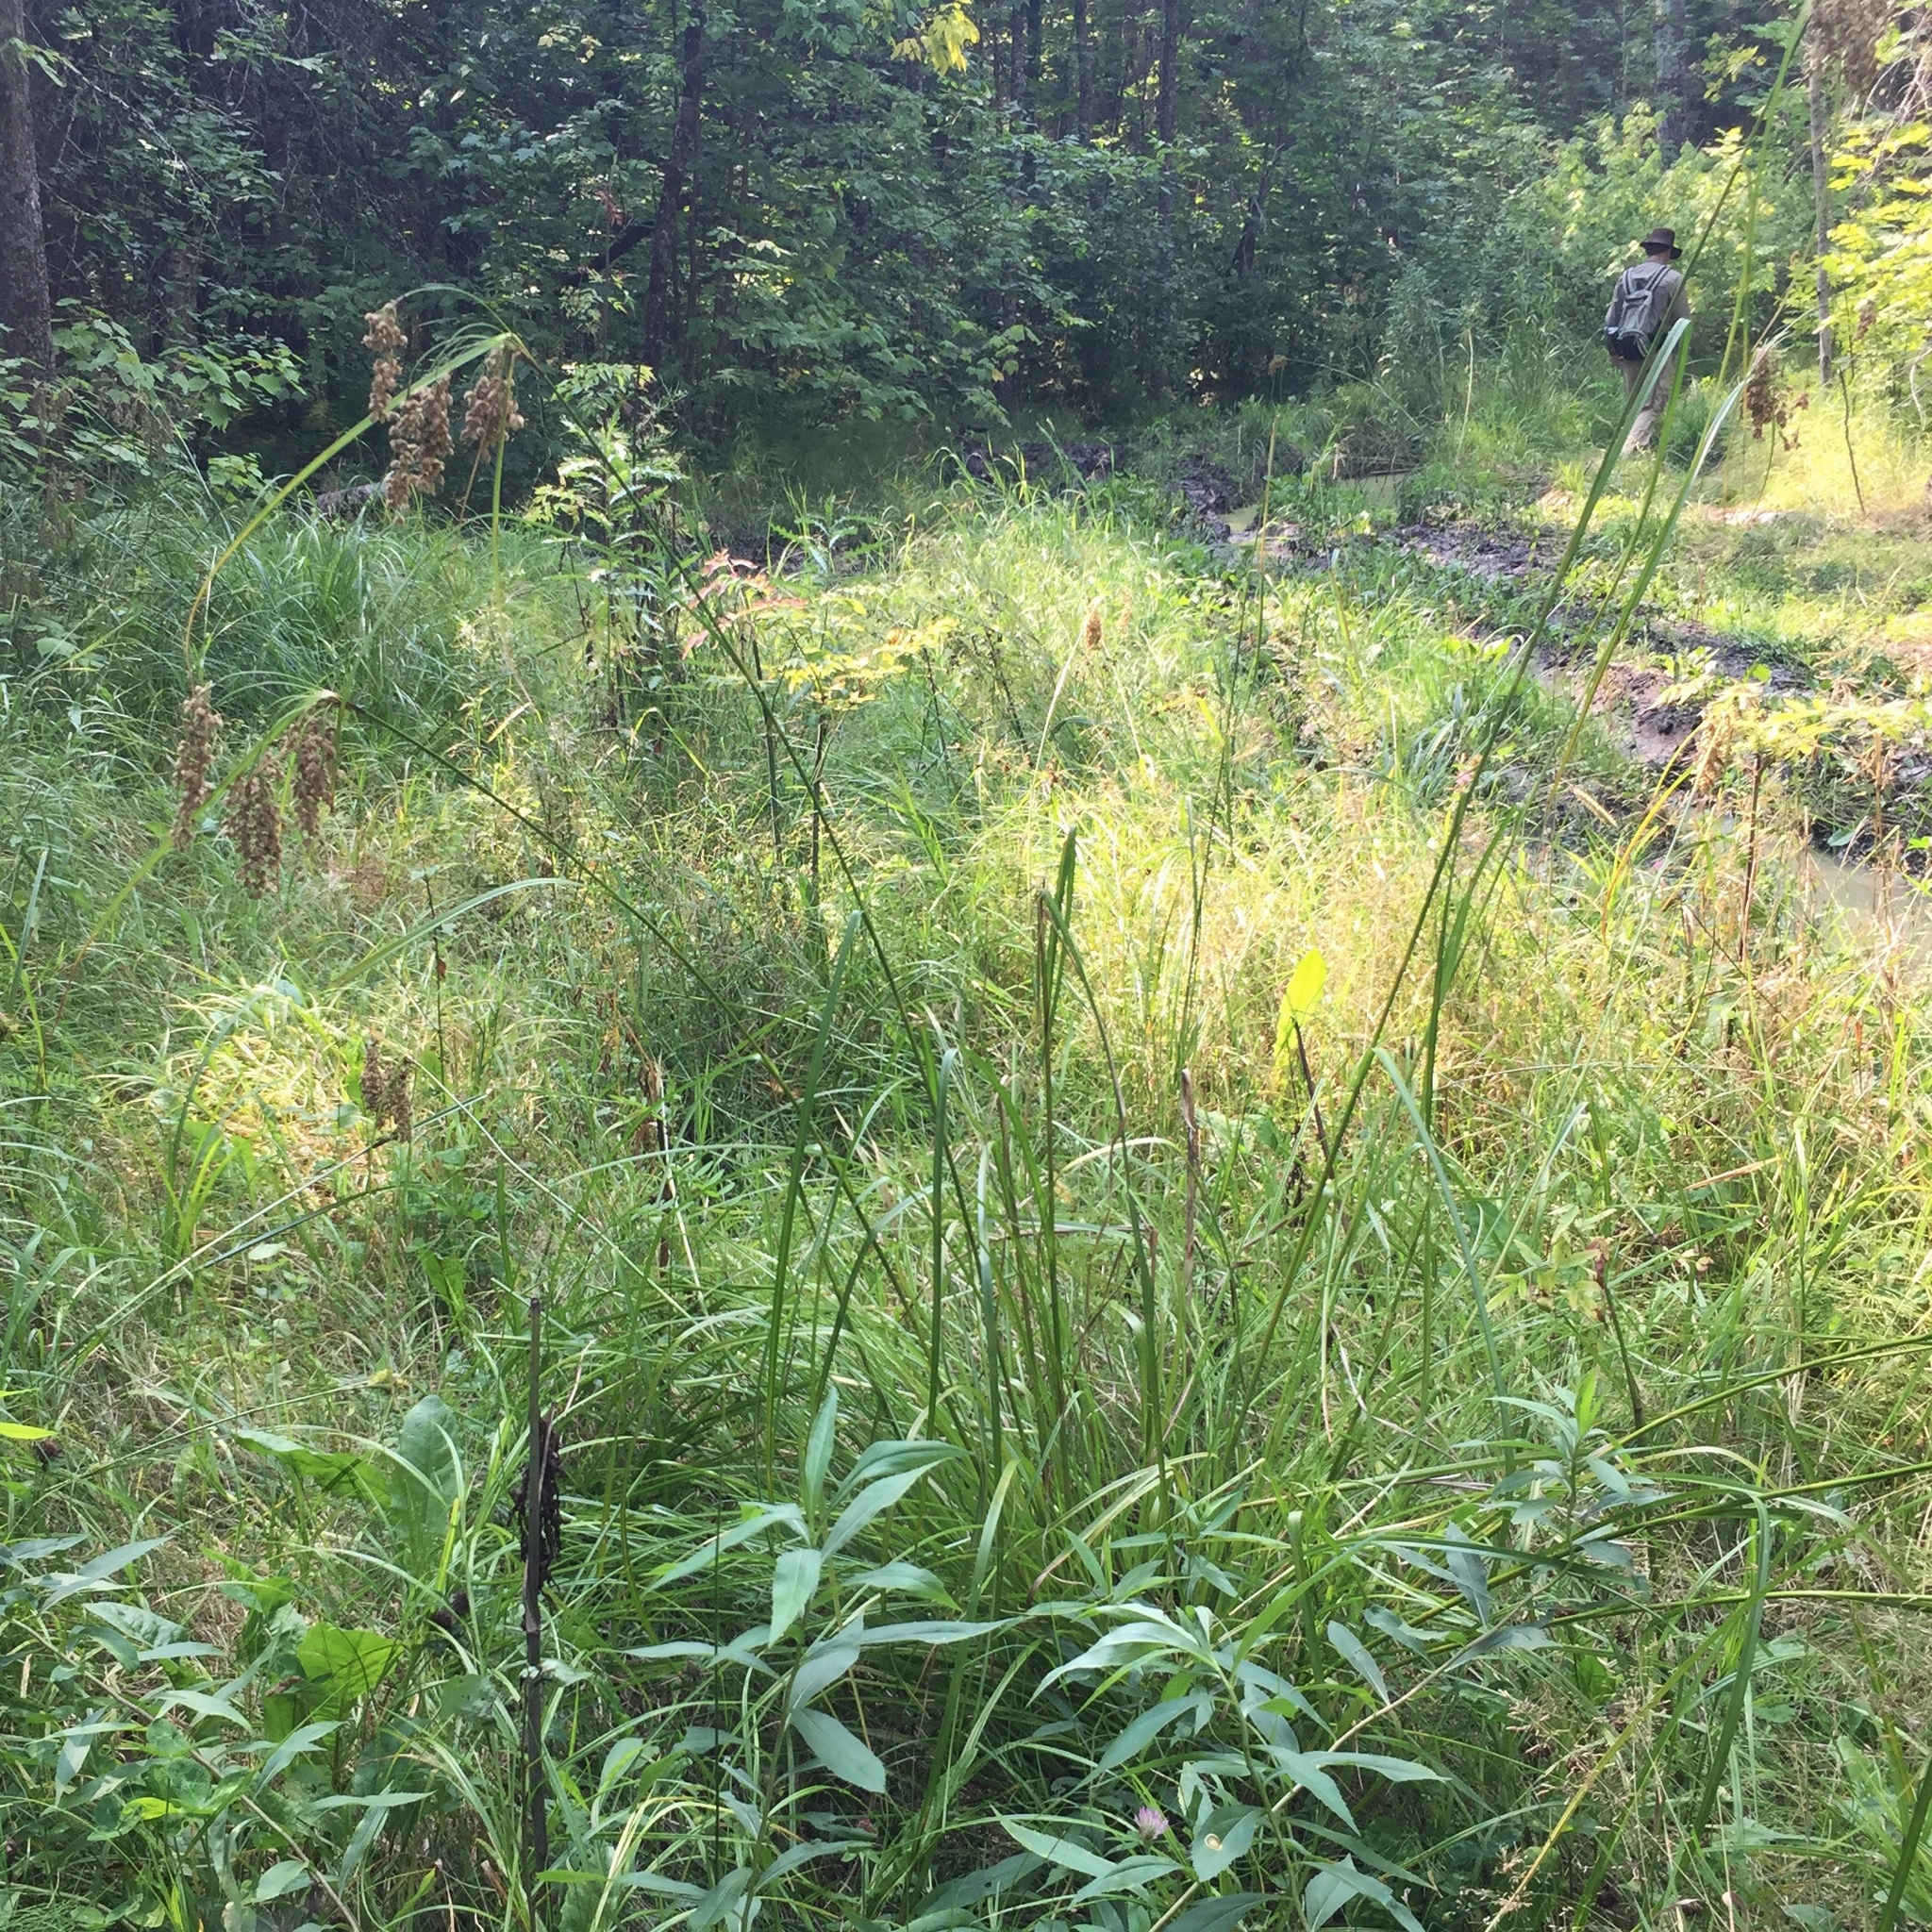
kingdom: Plantae
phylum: Tracheophyta
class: Liliopsida
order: Poales
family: Cyperaceae
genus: Scirpus
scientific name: Scirpus cyperinus
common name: Black-sheathed bulrush
